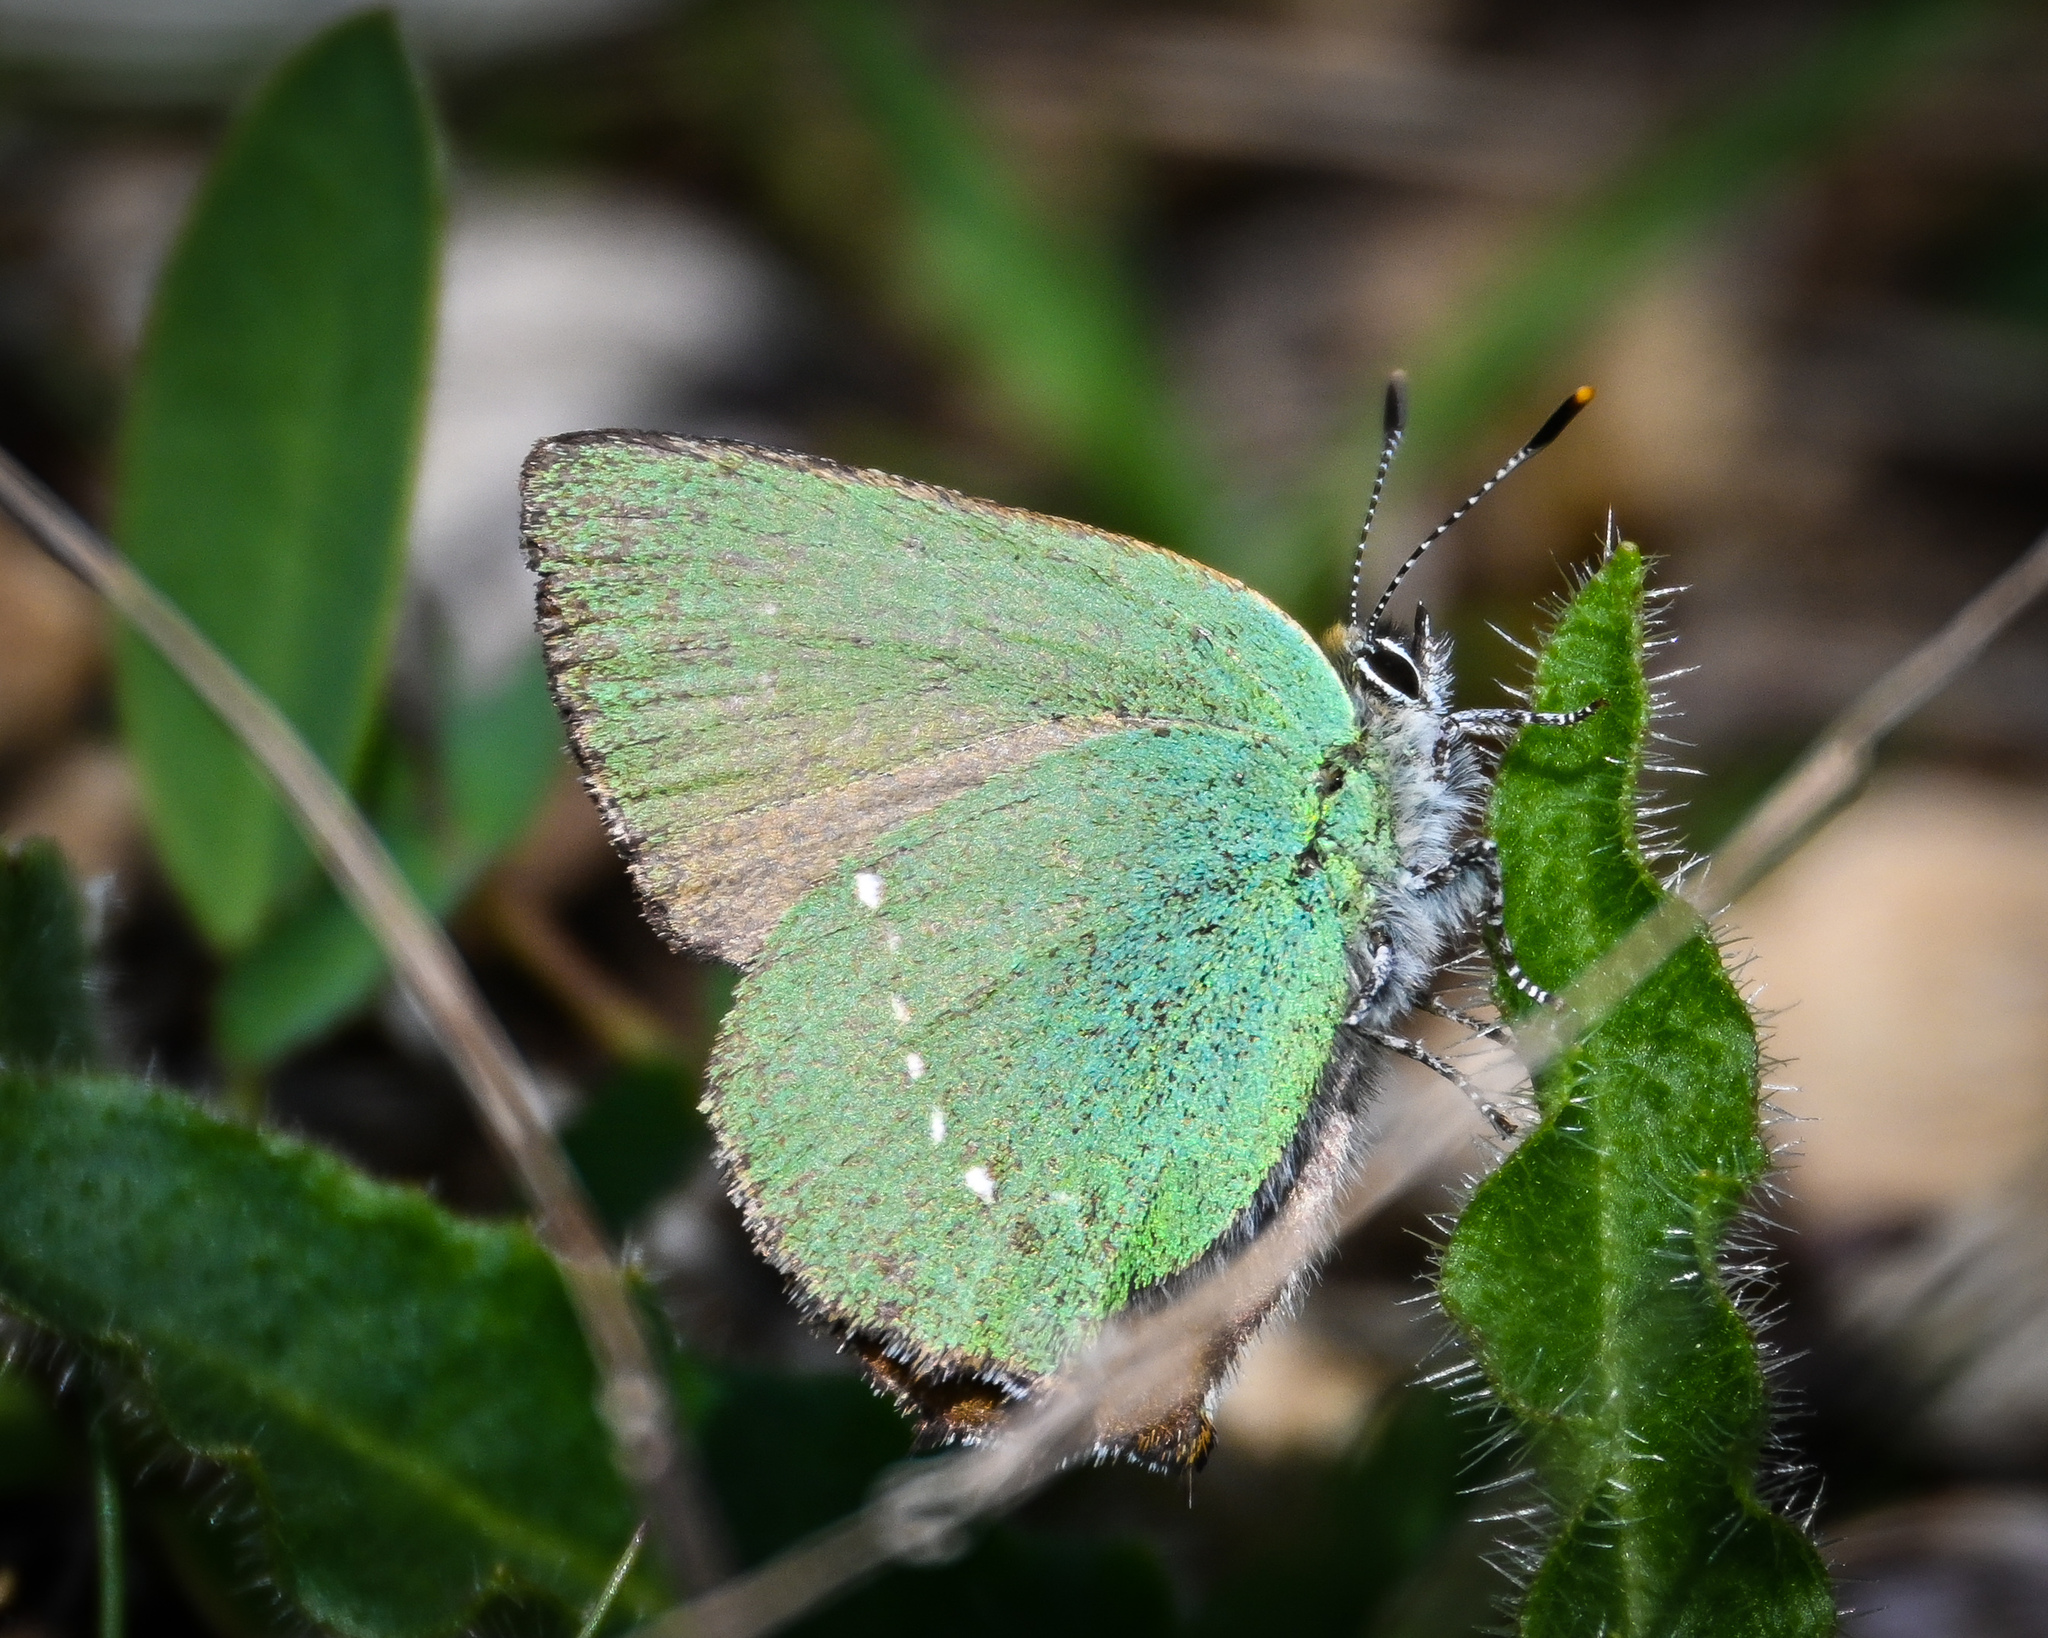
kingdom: Animalia
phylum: Arthropoda
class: Insecta
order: Lepidoptera
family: Lycaenidae
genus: Callophrys
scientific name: Callophrys rubi
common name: Green hairstreak
